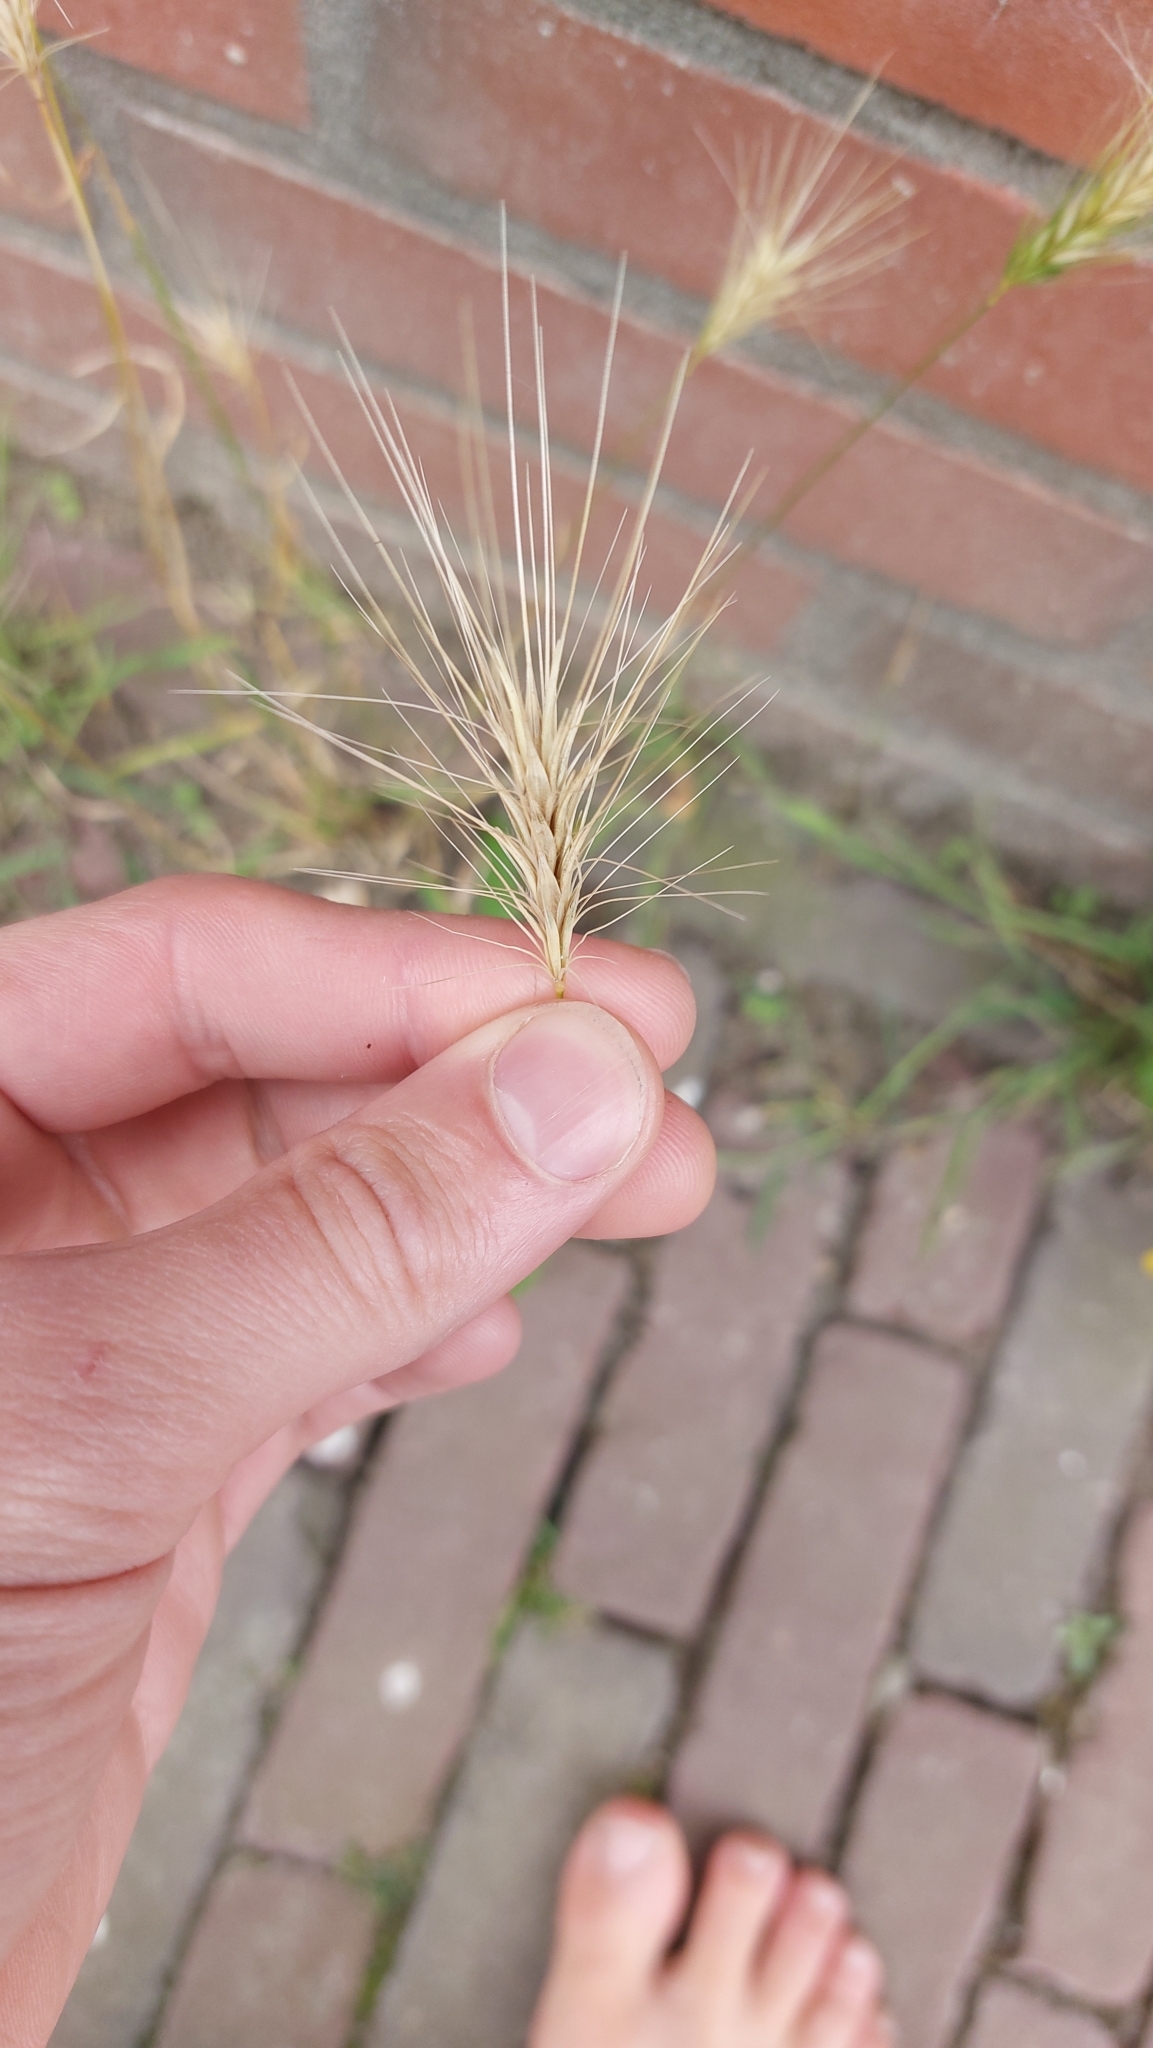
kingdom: Plantae
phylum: Tracheophyta
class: Liliopsida
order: Poales
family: Poaceae
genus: Hordeum
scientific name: Hordeum murinum
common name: Wall barley
